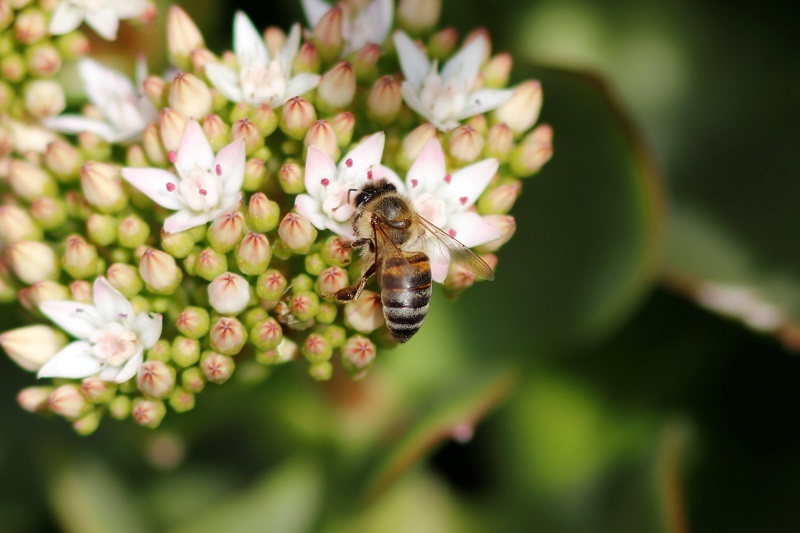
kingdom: Animalia
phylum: Arthropoda
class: Insecta
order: Hymenoptera
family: Apidae
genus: Apis
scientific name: Apis mellifera
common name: Honey bee
